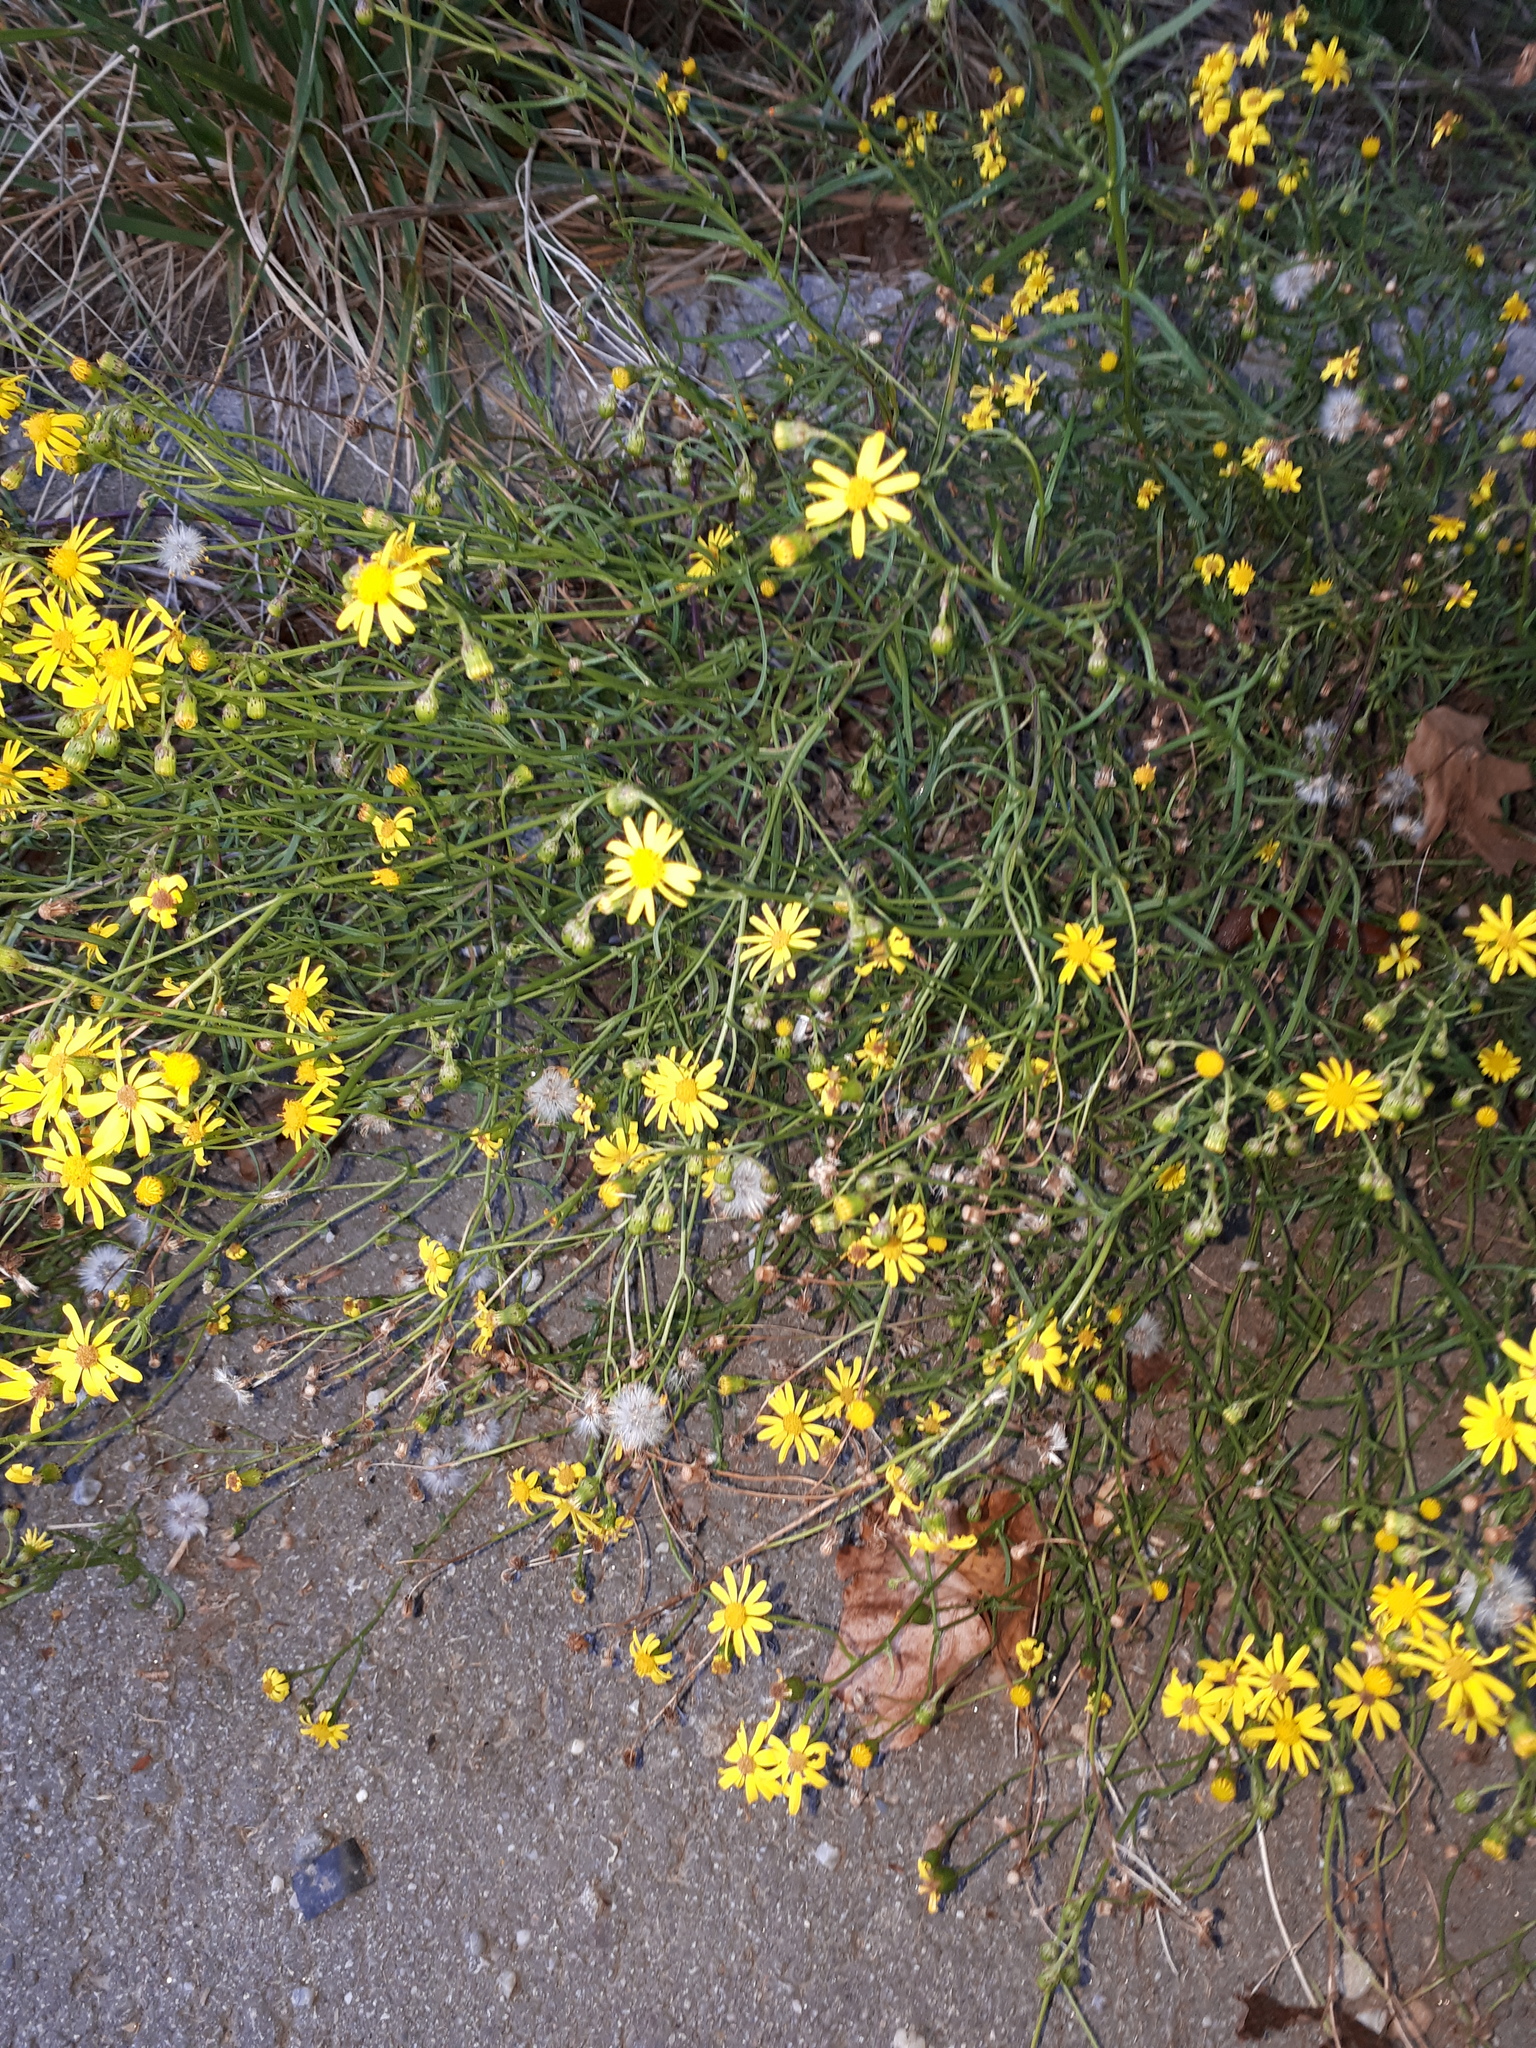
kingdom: Plantae
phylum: Tracheophyta
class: Magnoliopsida
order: Asterales
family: Asteraceae
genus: Senecio
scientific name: Senecio inaequidens
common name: Narrow-leaved ragwort
